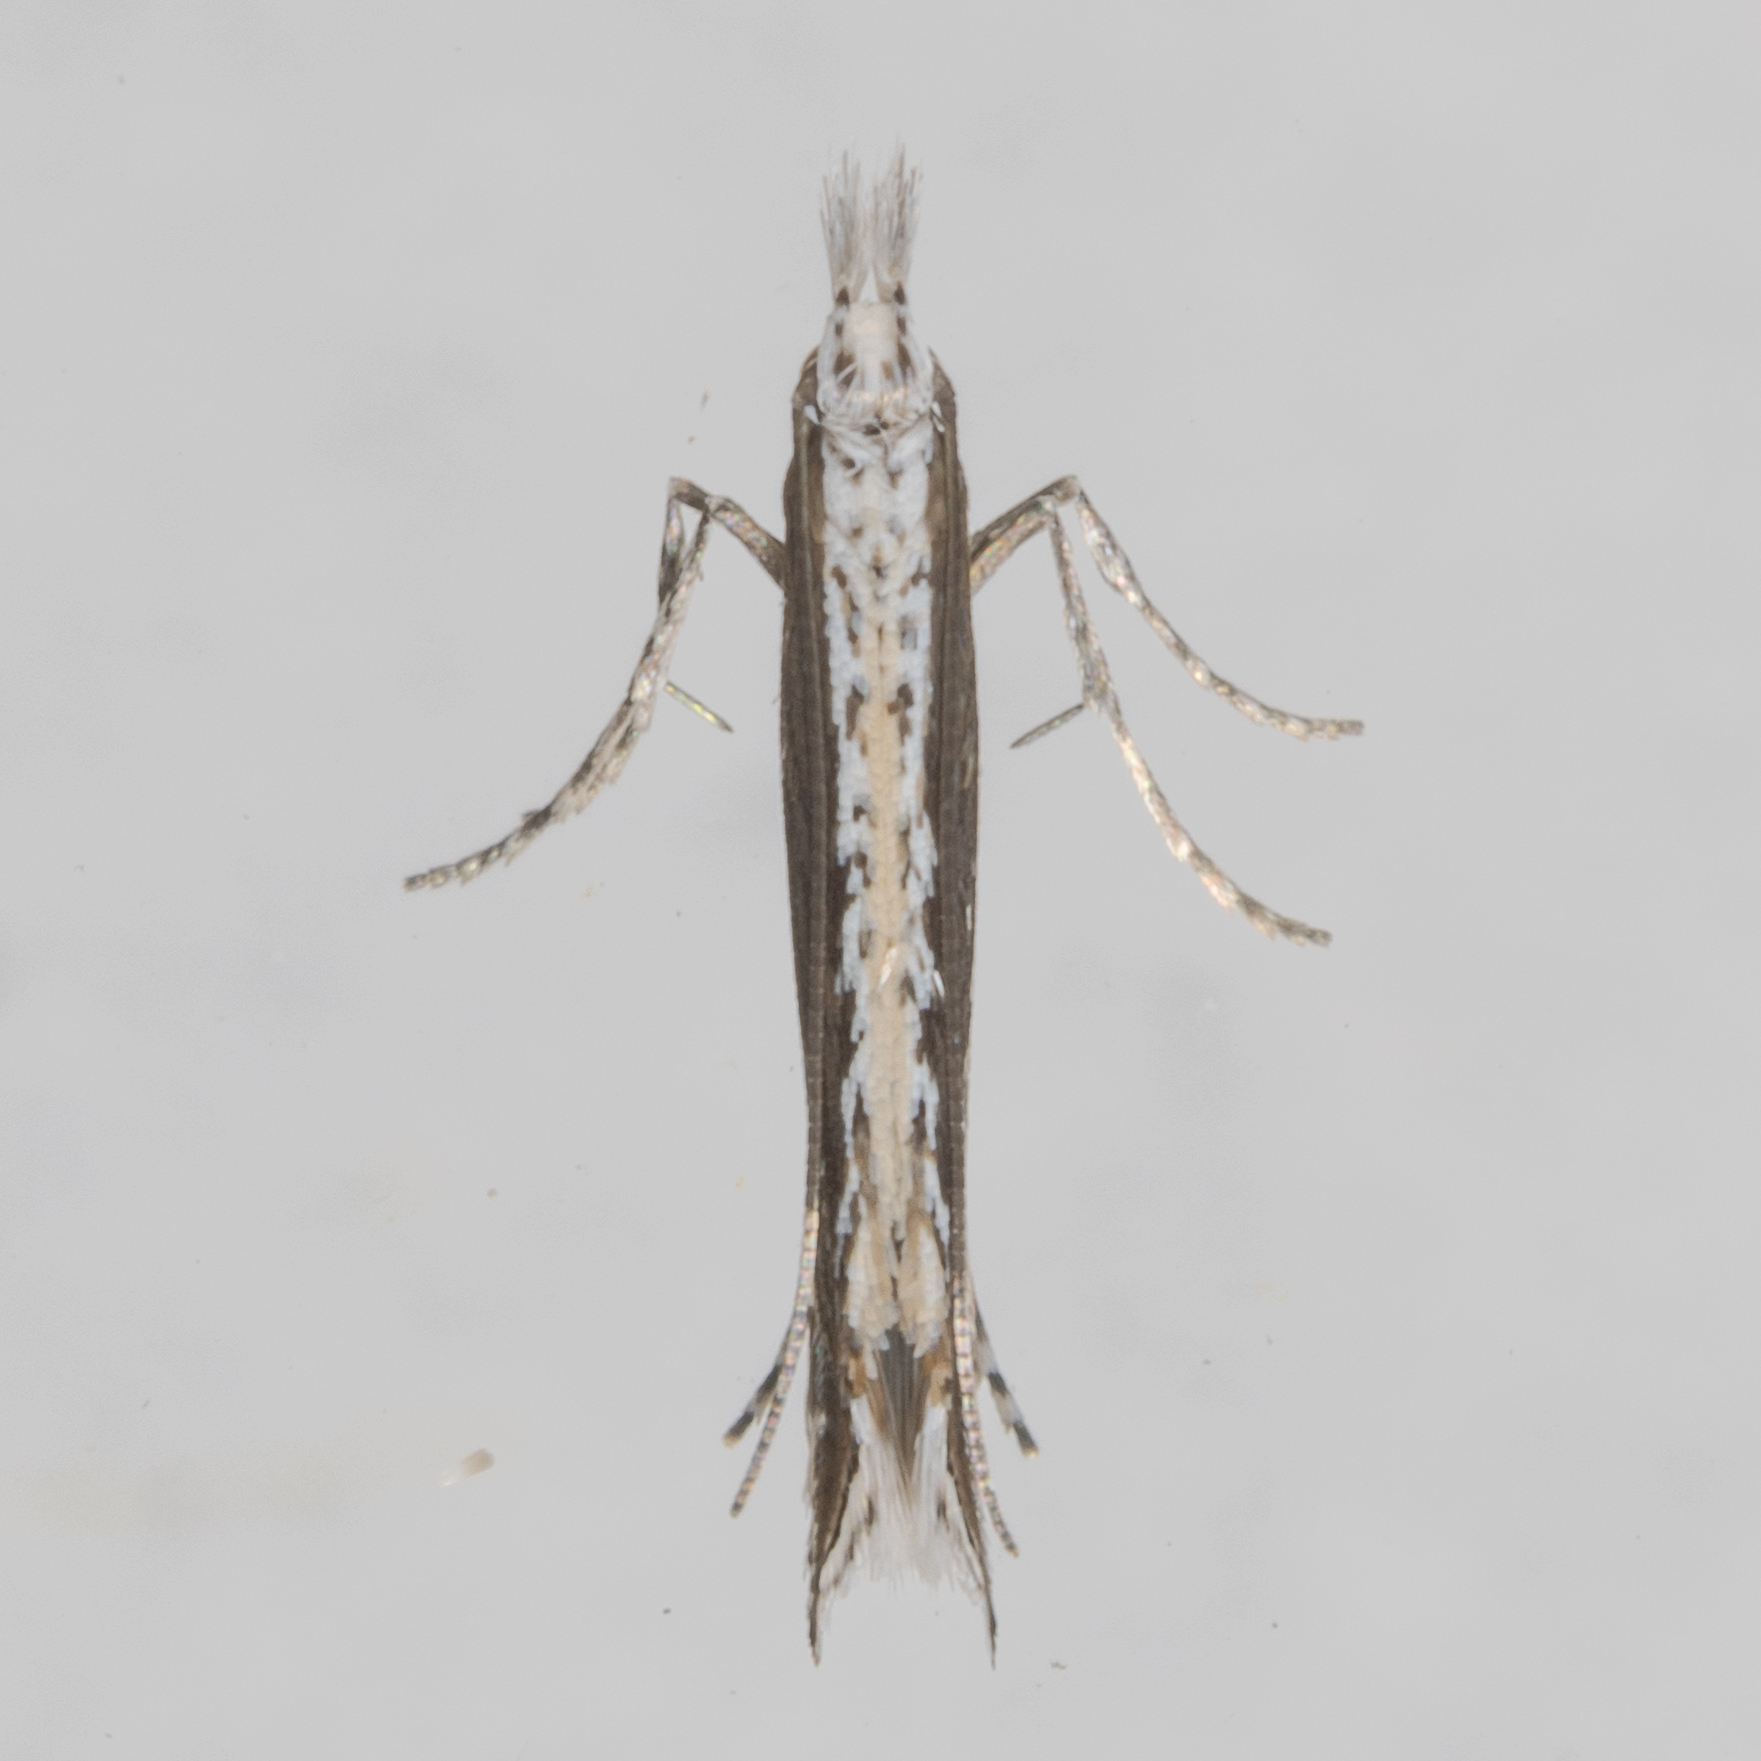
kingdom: Plantae
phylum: Rhodophyta
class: Florideophyceae
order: Gracilariales
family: Gracilariaceae
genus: Gracilaria
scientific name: Gracilaria
